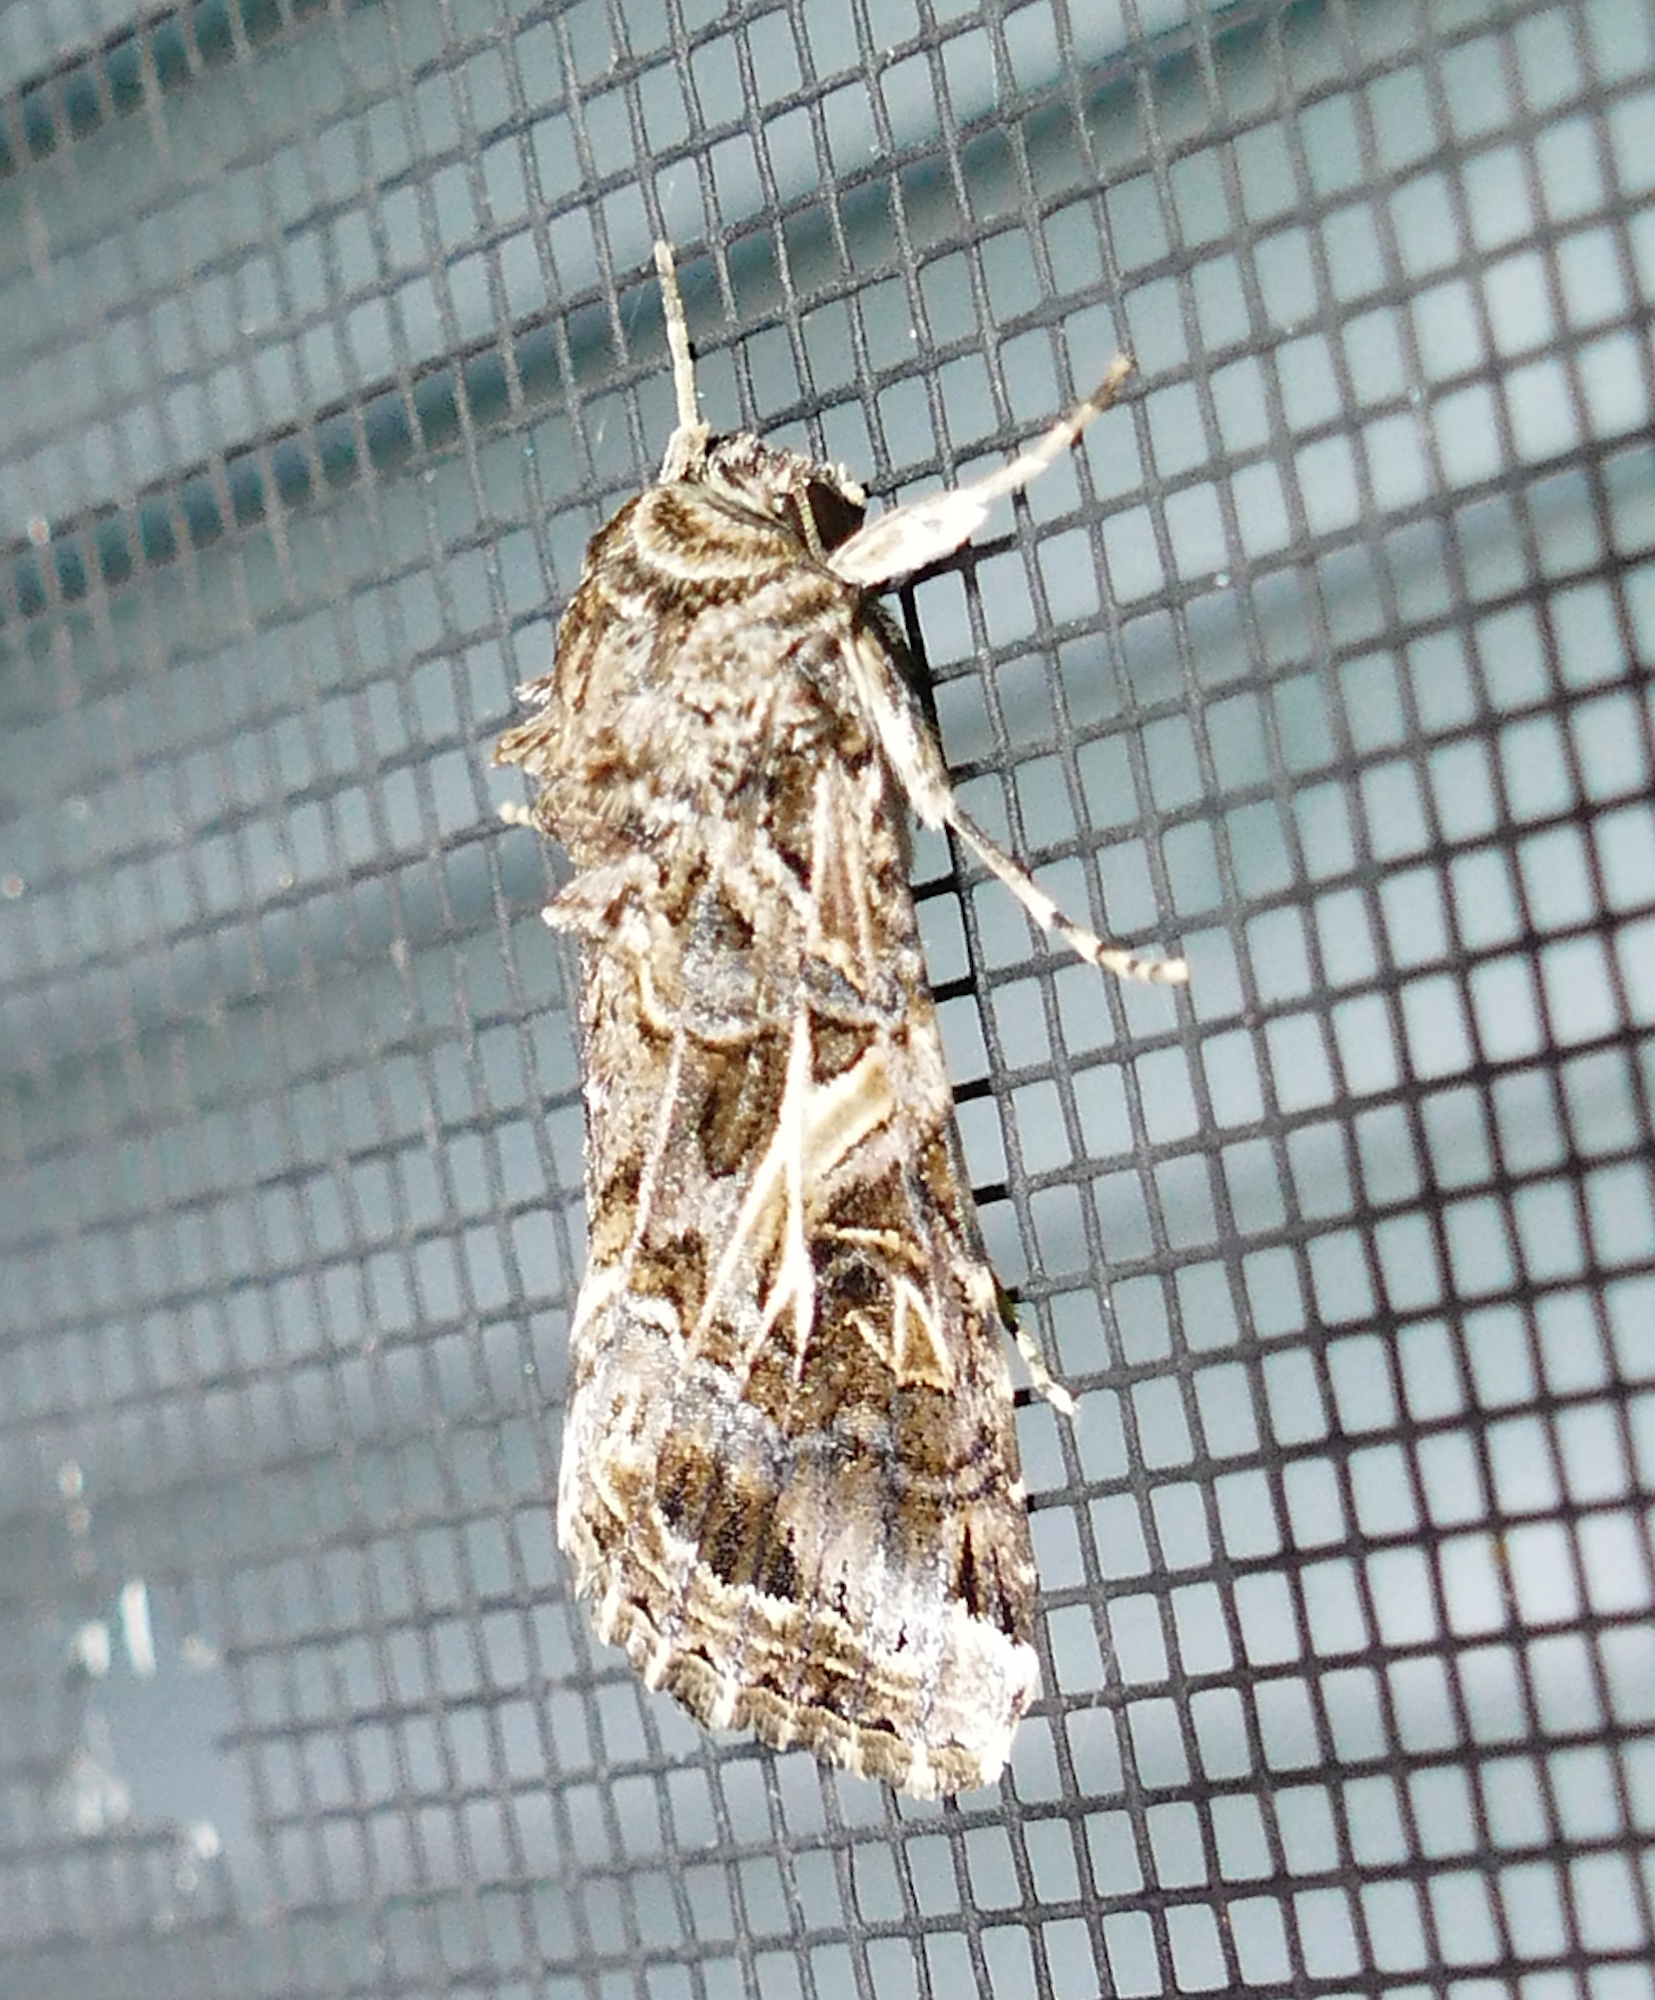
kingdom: Animalia
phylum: Arthropoda
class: Insecta
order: Lepidoptera
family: Noctuidae
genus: Spodoptera
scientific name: Spodoptera ornithogalli
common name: Yellow-striped armyworm
